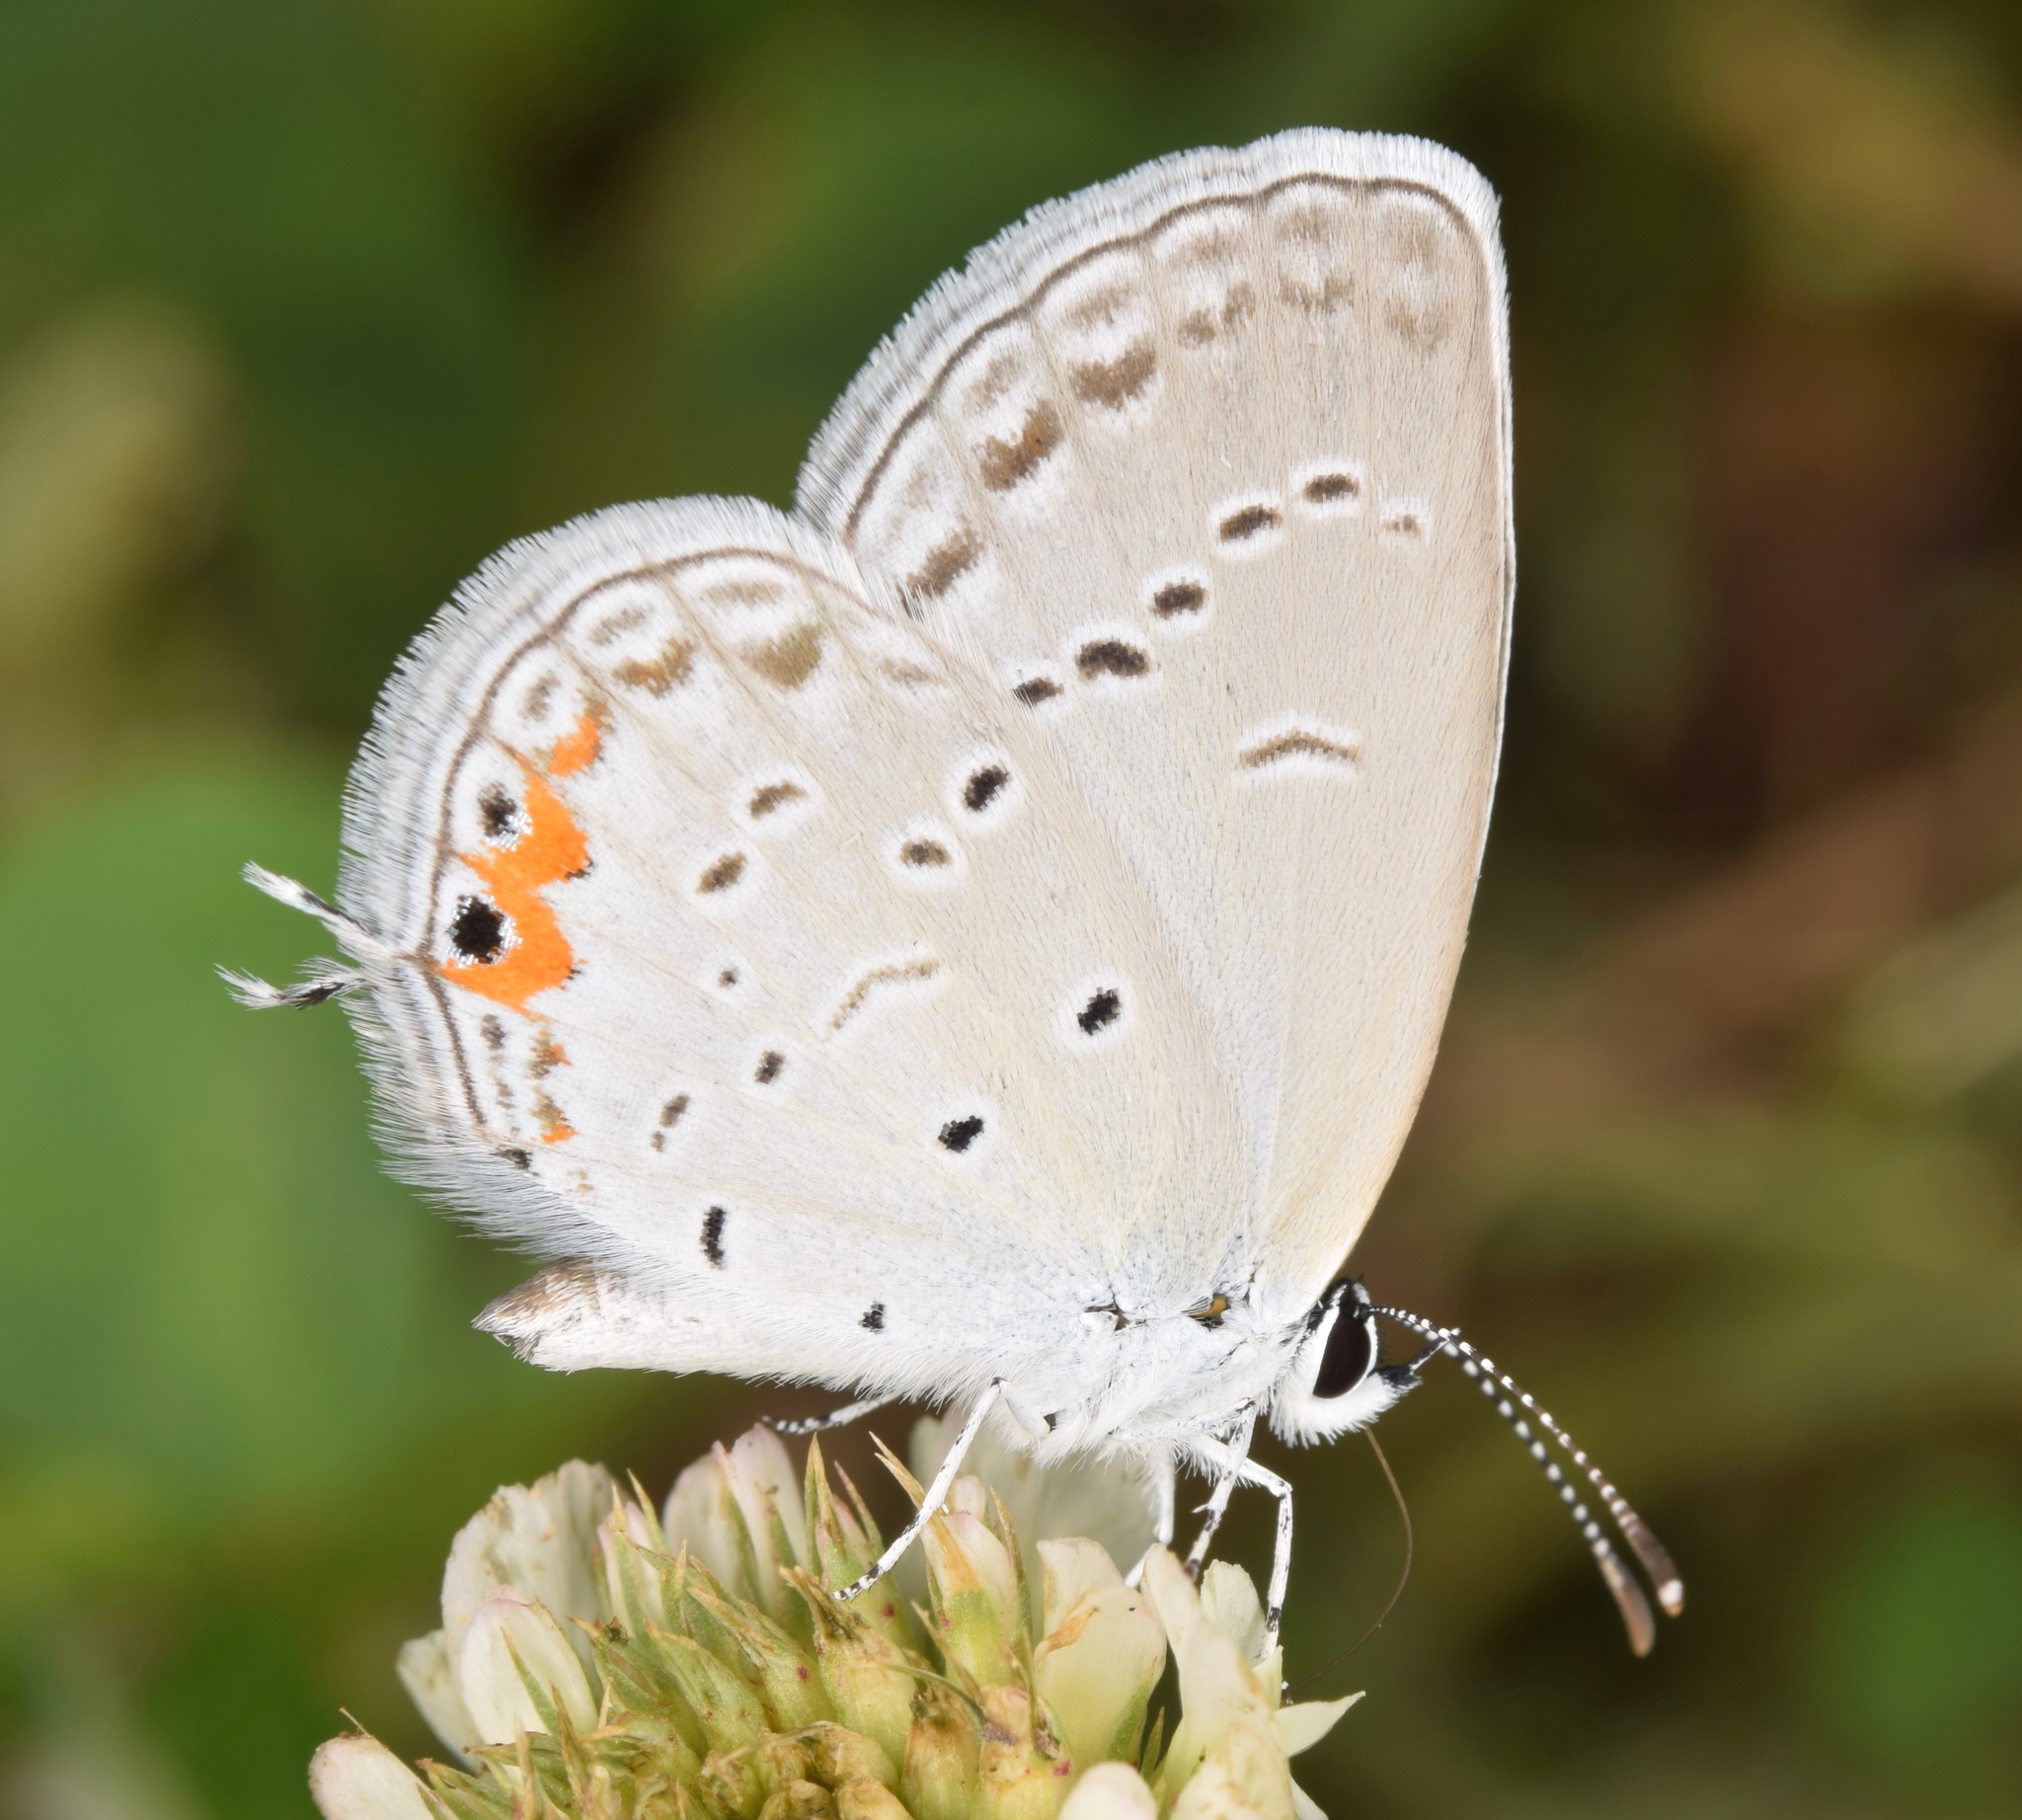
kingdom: Animalia
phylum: Arthropoda
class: Insecta
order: Lepidoptera
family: Lycaenidae
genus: Elkalyce
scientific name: Elkalyce comyntas
